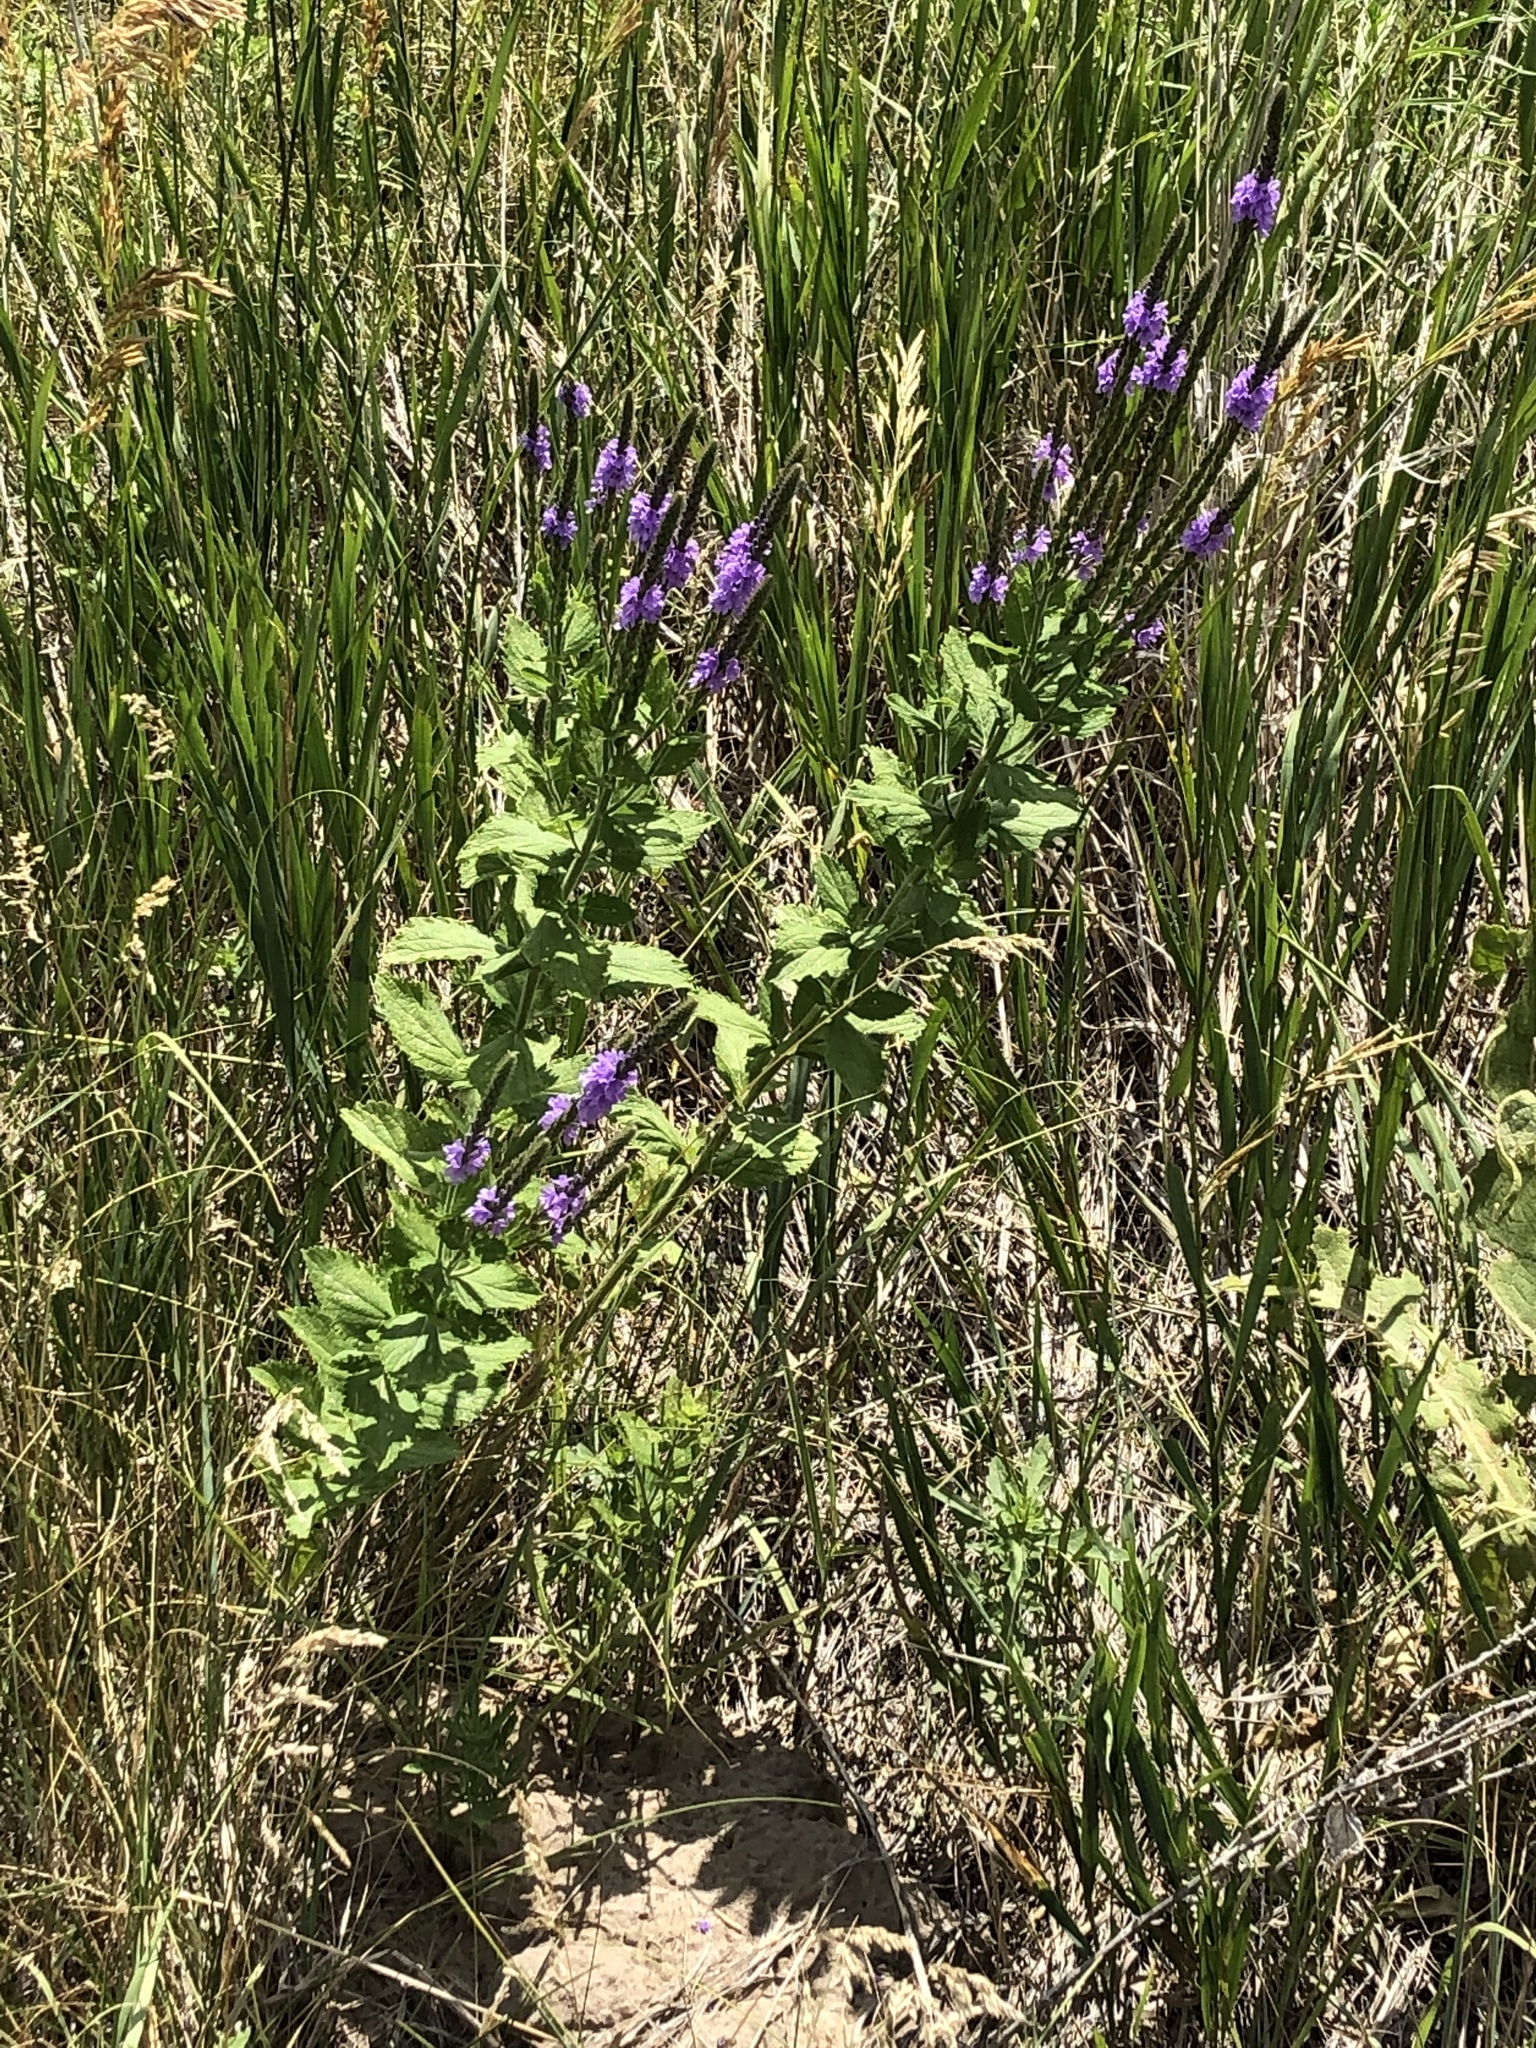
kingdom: Plantae
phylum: Tracheophyta
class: Magnoliopsida
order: Lamiales
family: Verbenaceae
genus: Verbena
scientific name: Verbena stricta
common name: Hoary vervain
